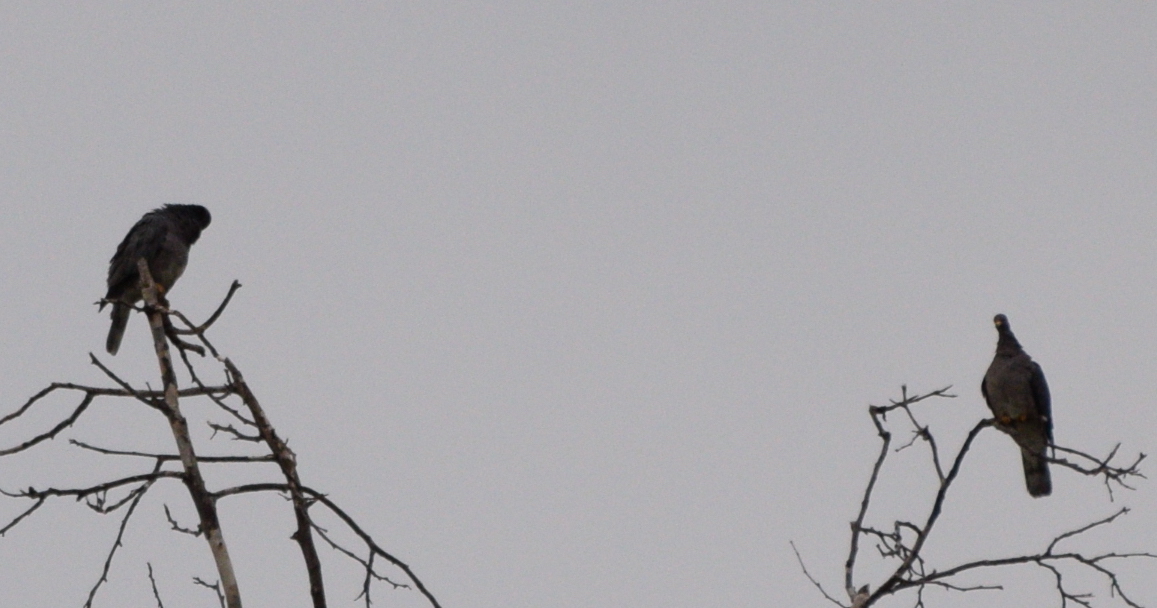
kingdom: Animalia
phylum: Chordata
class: Aves
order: Columbiformes
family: Columbidae
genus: Patagioenas
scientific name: Patagioenas fasciata
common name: Band-tailed pigeon
